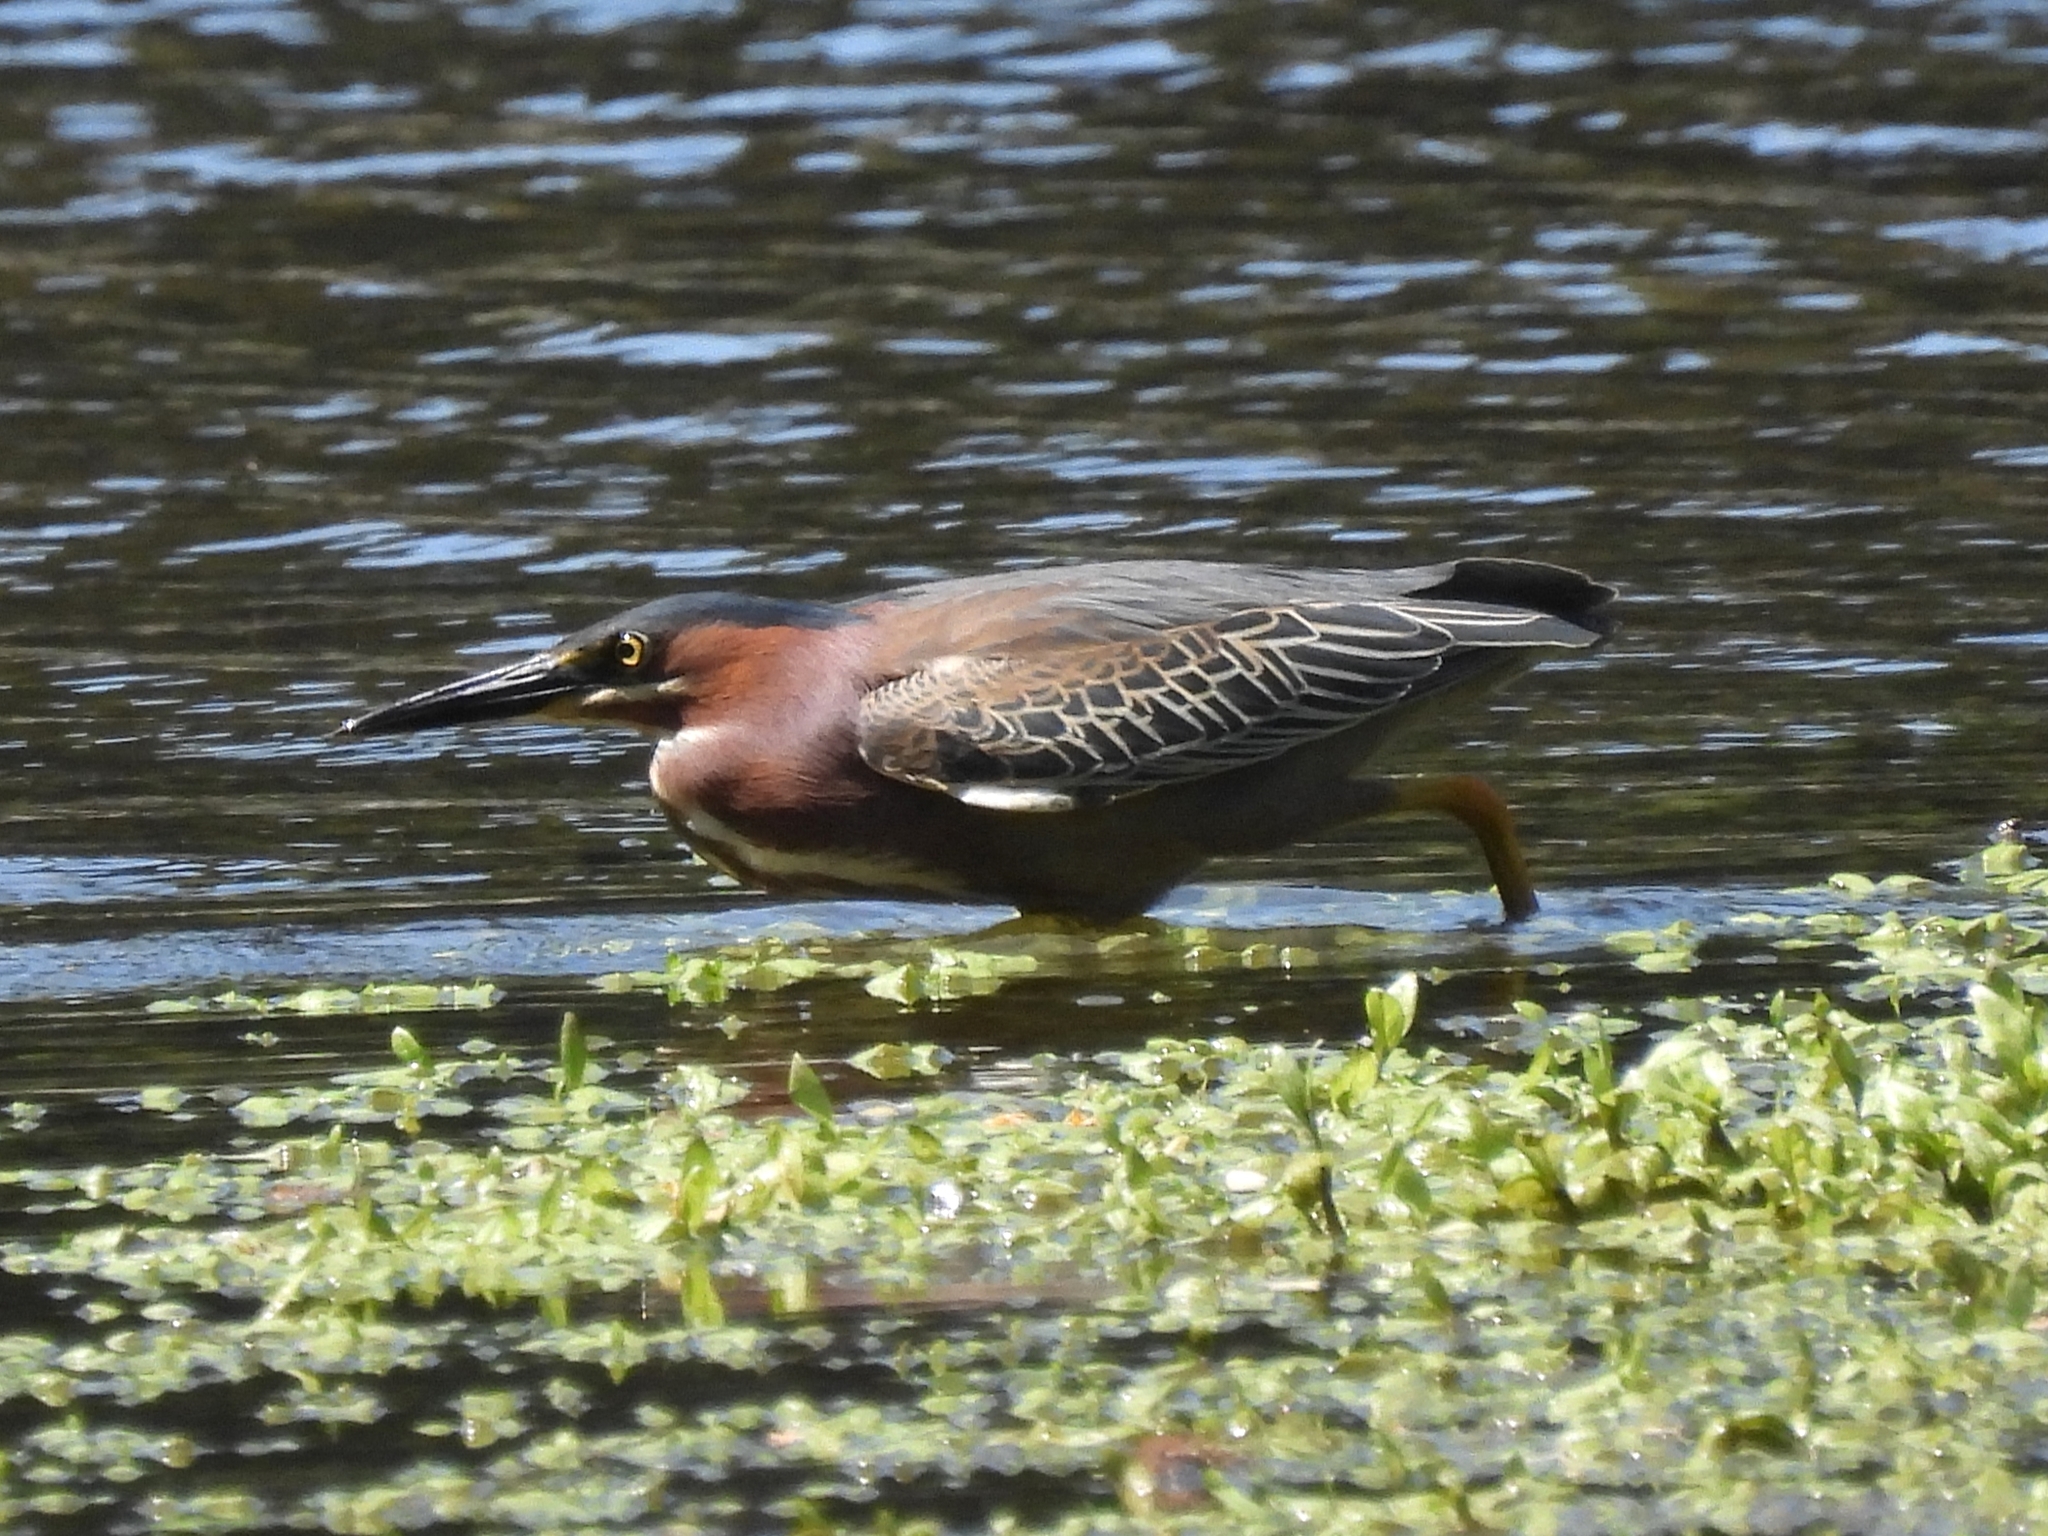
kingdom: Animalia
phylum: Chordata
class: Aves
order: Pelecaniformes
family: Ardeidae
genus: Butorides
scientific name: Butorides virescens
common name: Green heron
